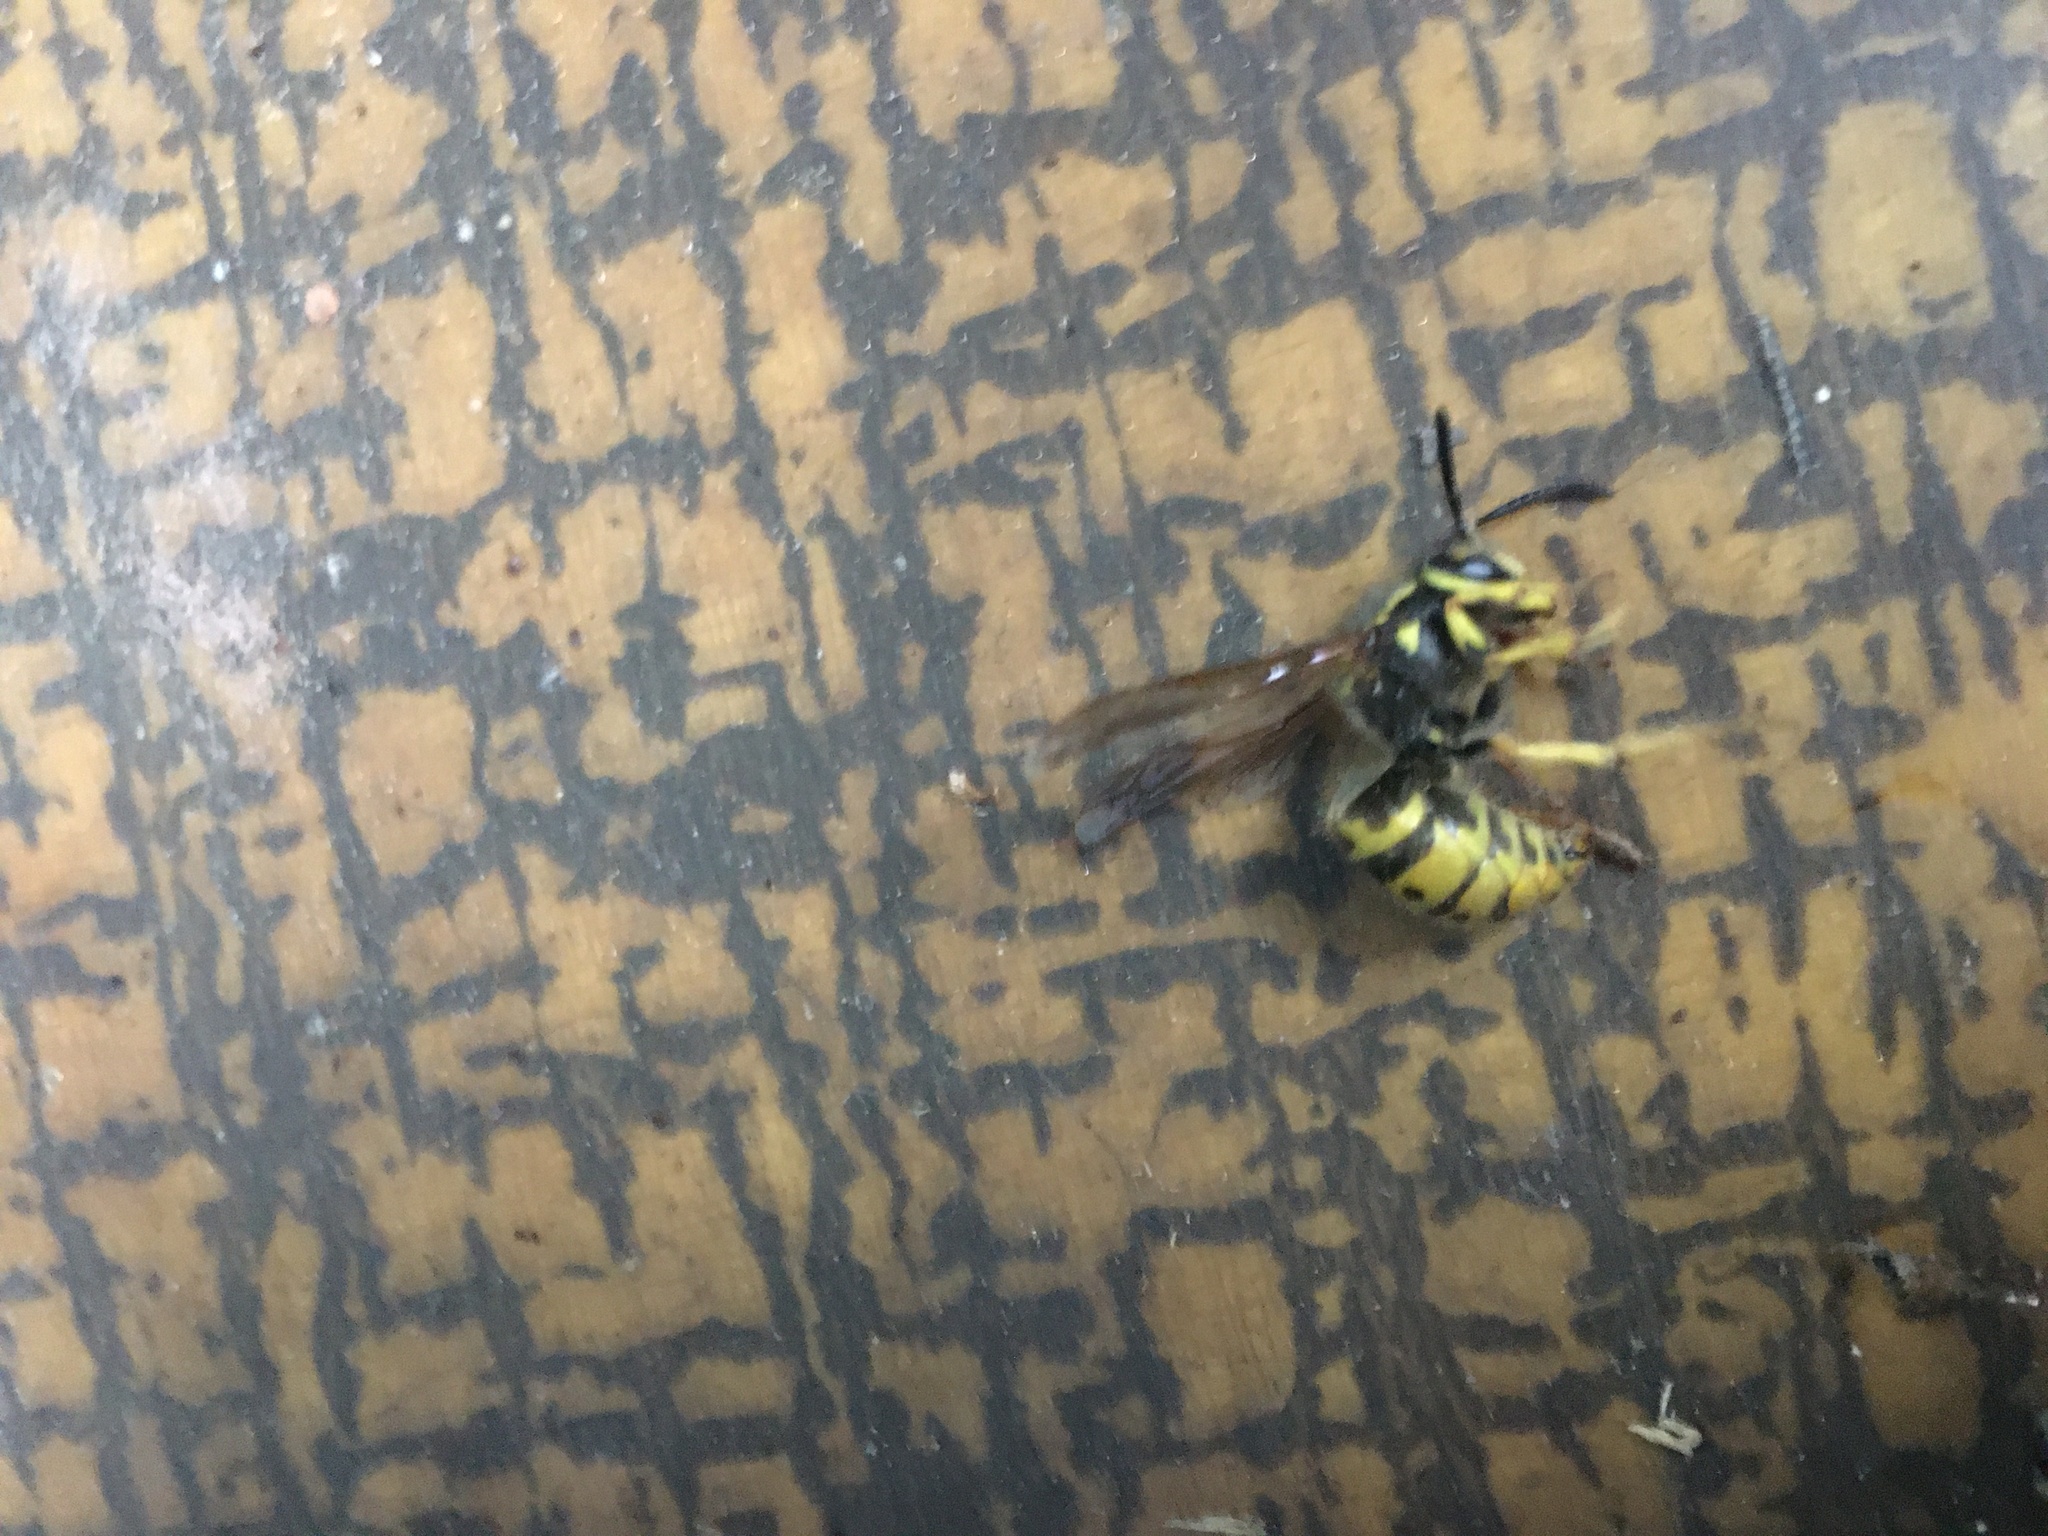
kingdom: Animalia
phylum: Arthropoda
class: Insecta
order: Hymenoptera
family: Vespidae
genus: Vespula
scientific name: Vespula germanica
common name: German wasp
